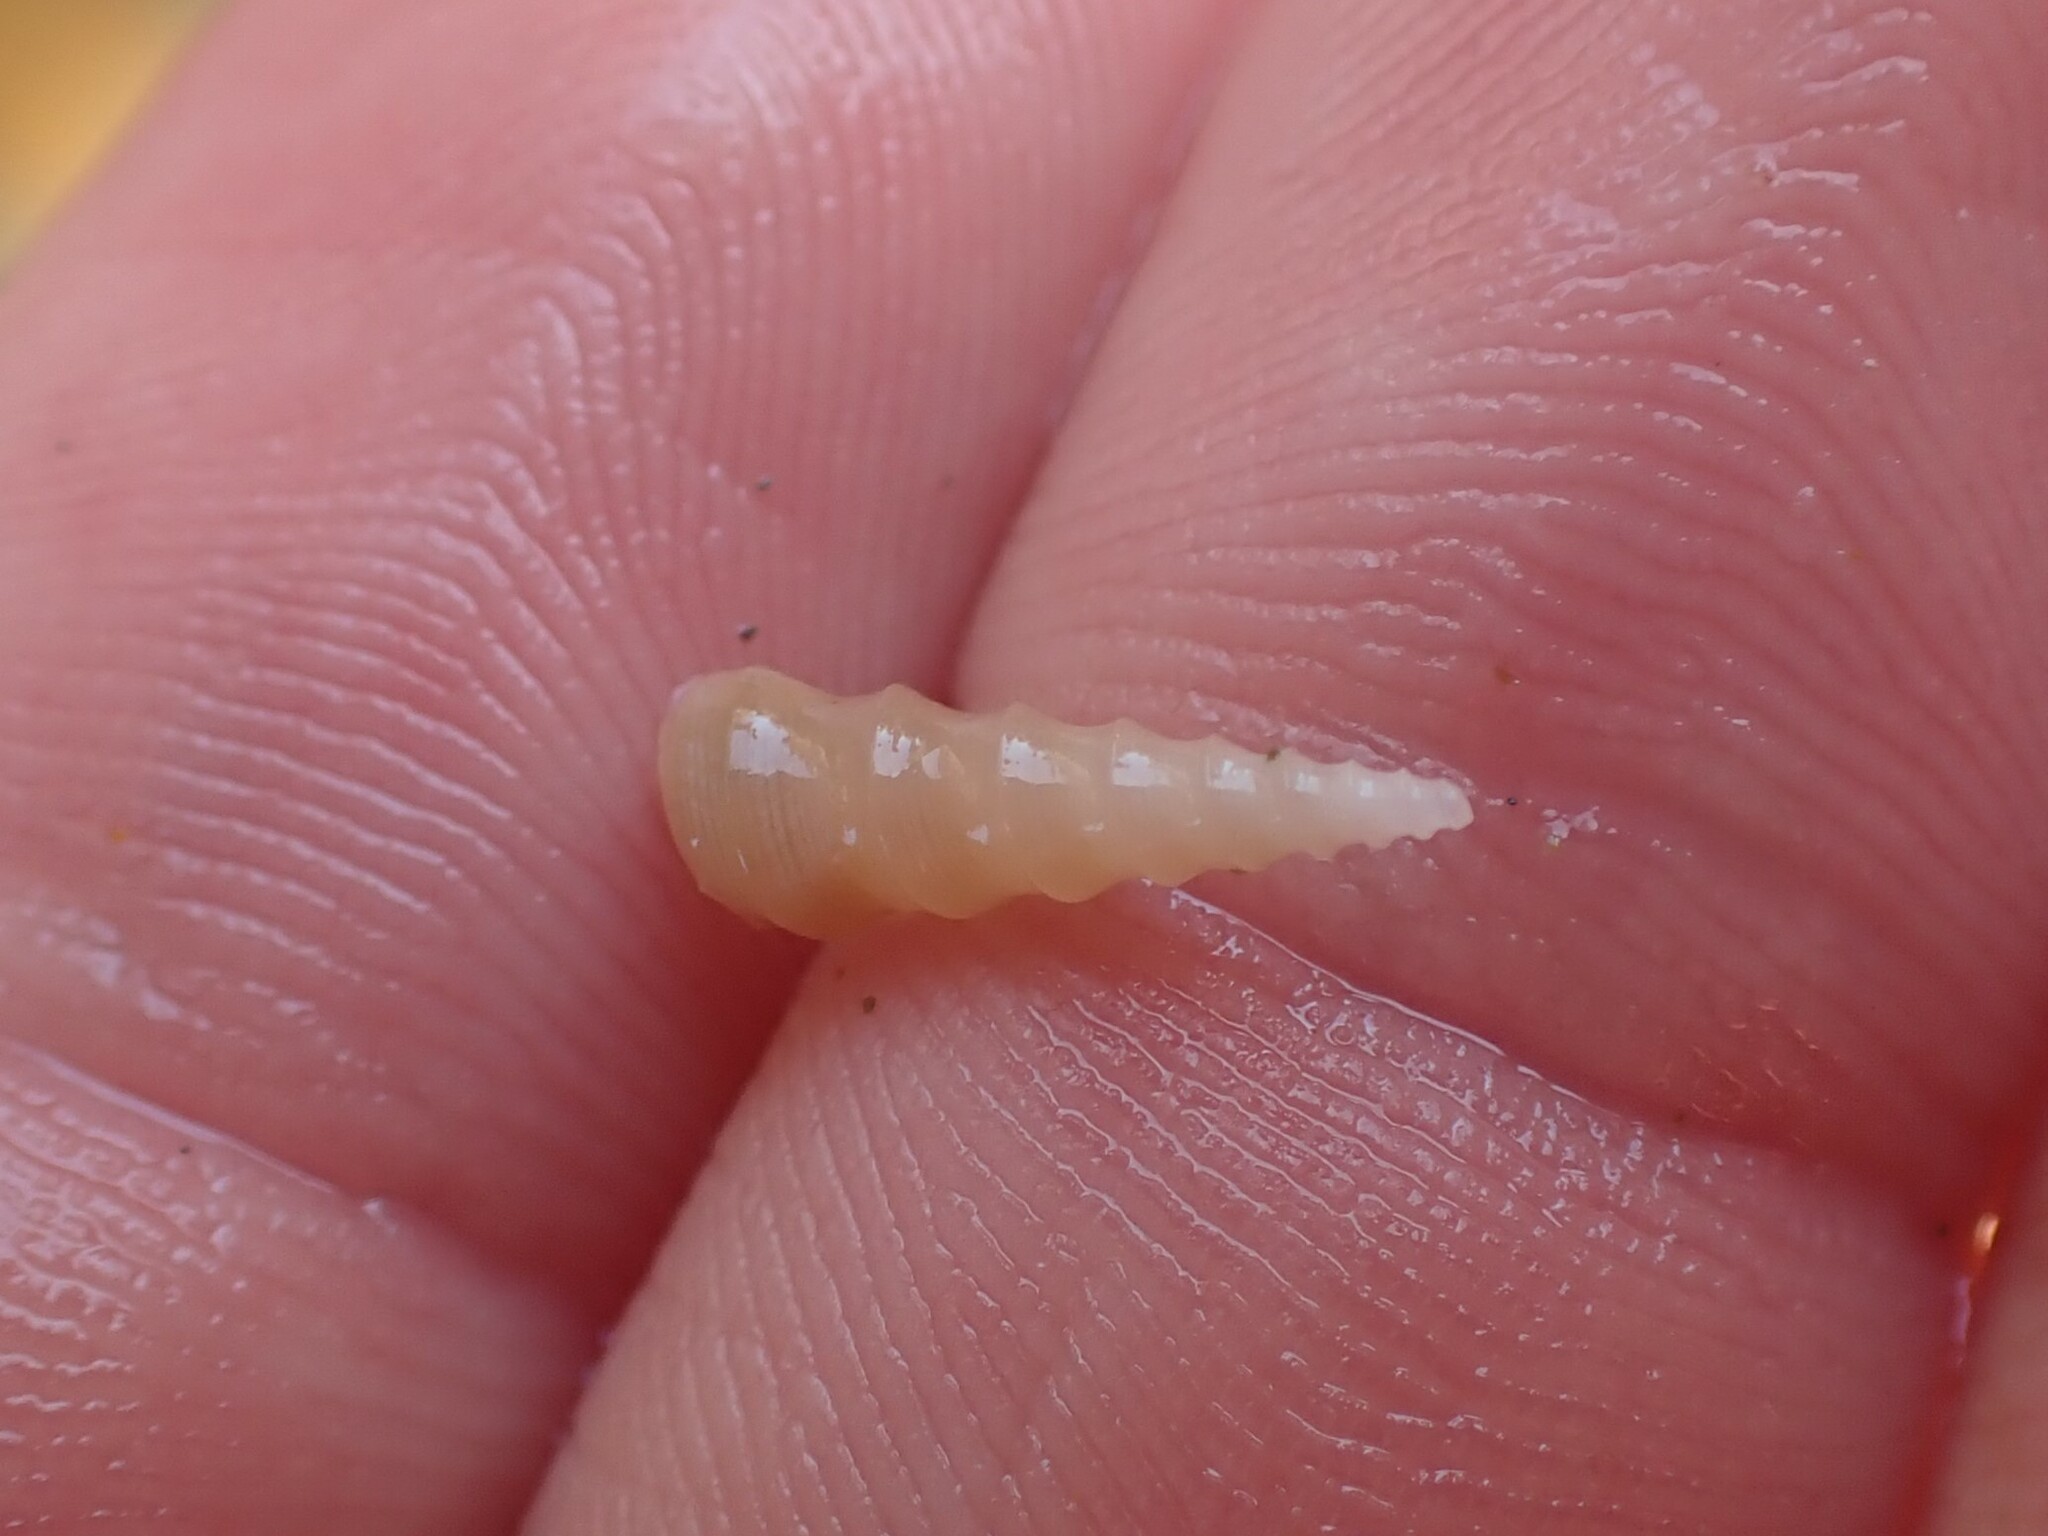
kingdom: Animalia
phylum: Mollusca
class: Gastropoda
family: Turritellidae
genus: Stiracolpus
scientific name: Stiracolpus ahiparanus
